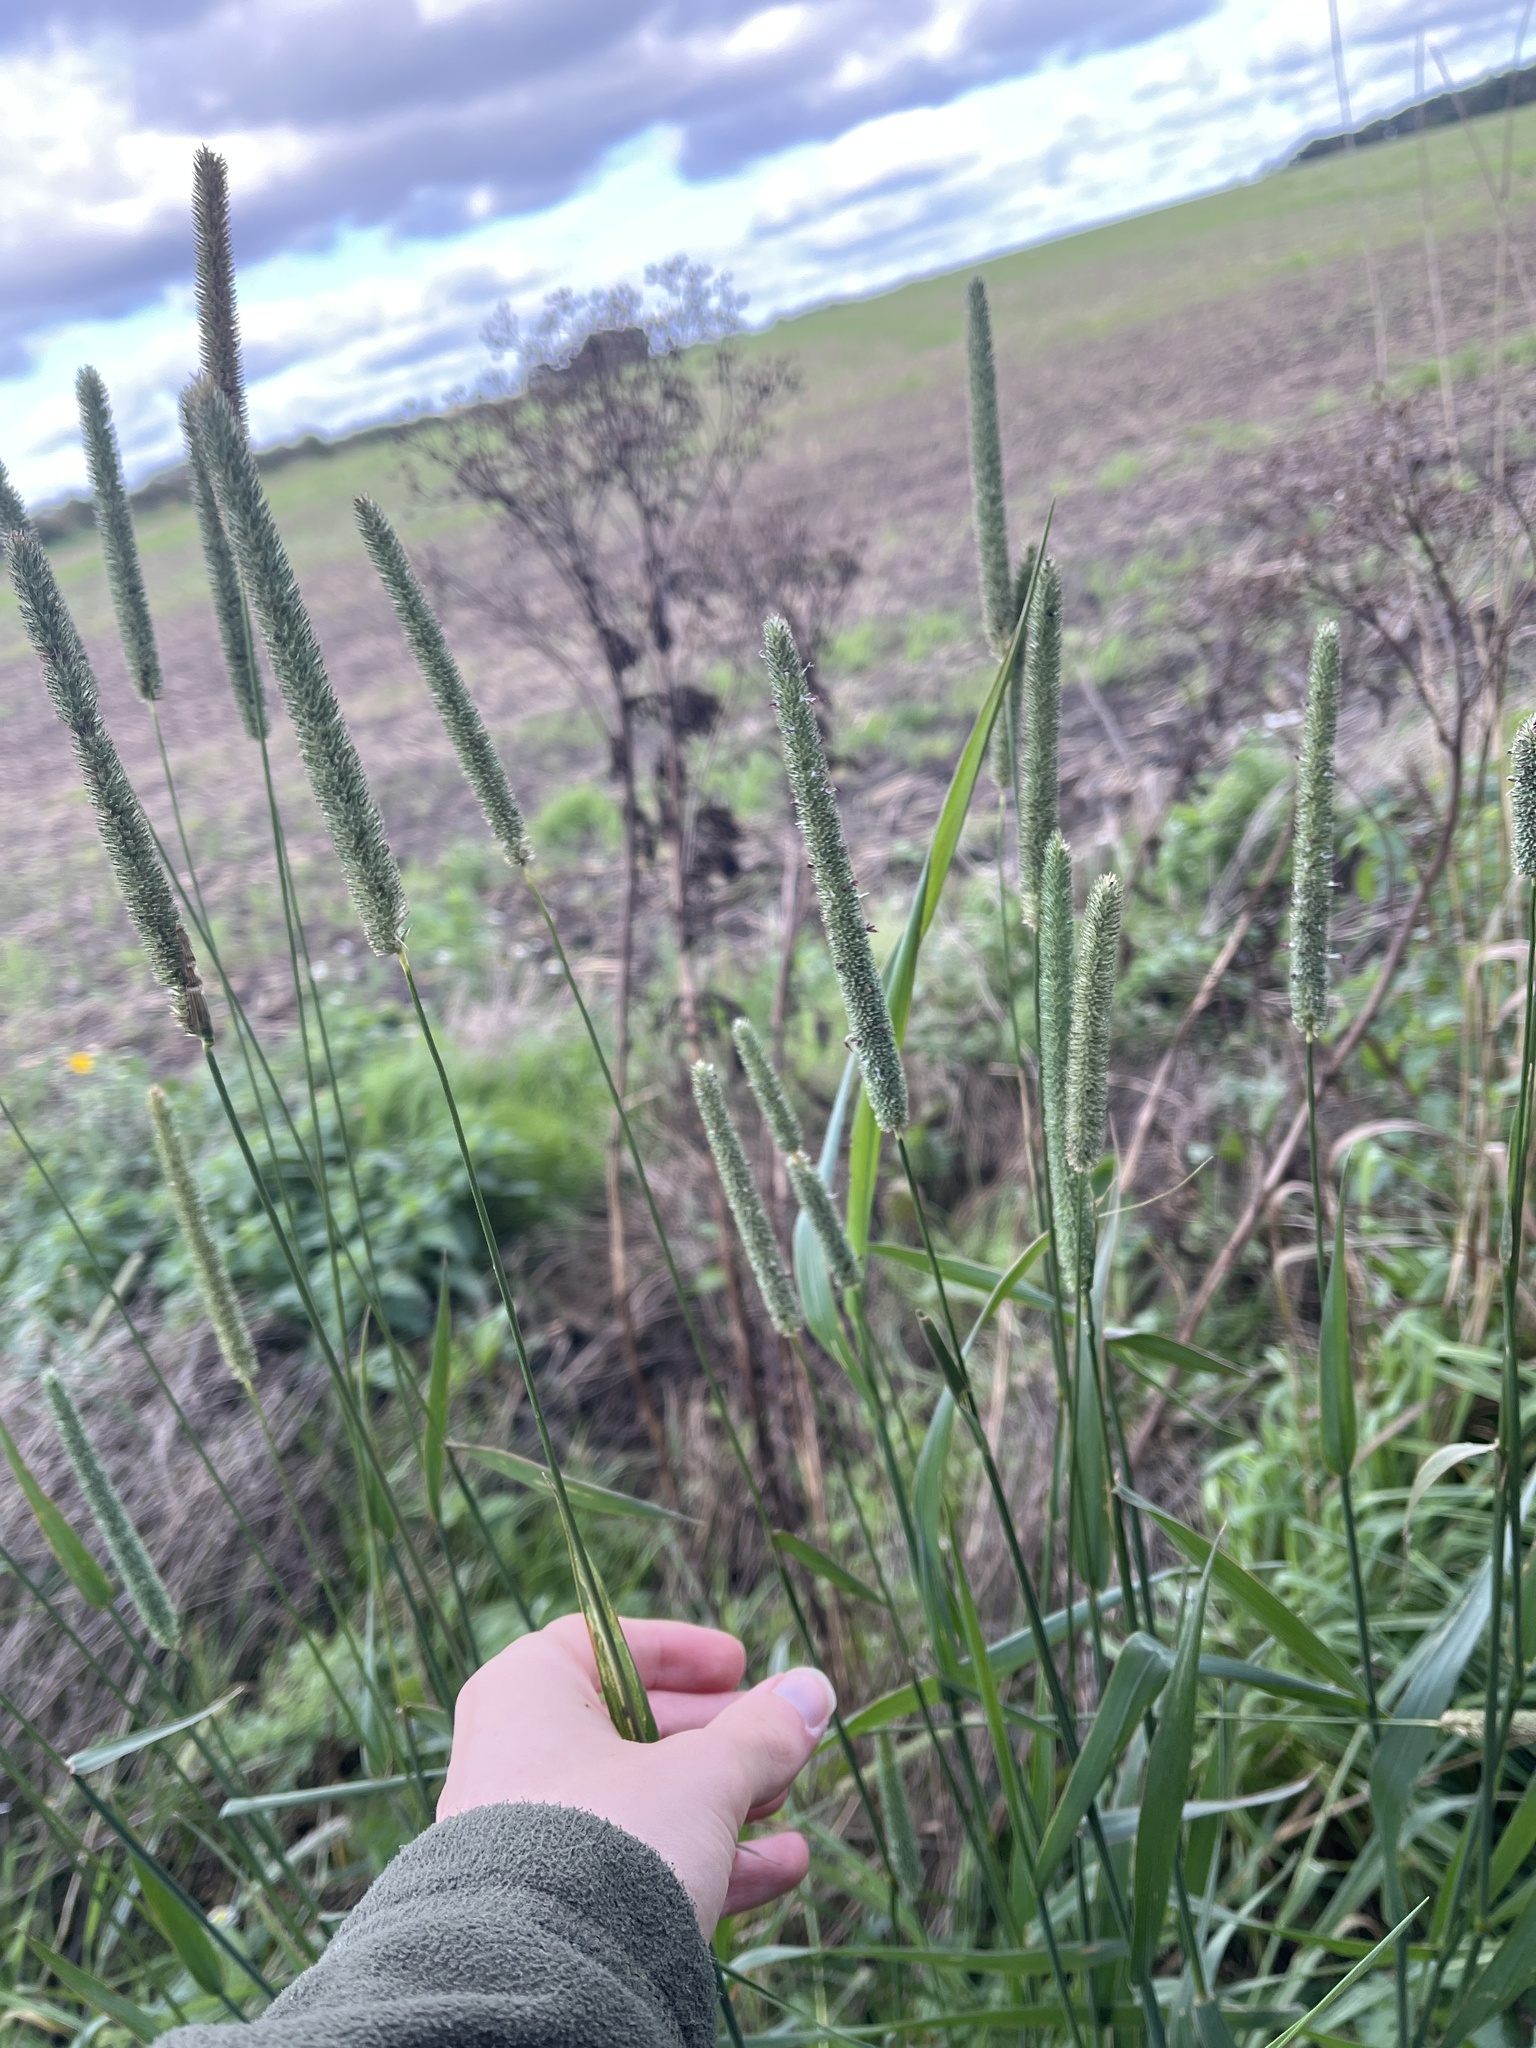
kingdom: Plantae
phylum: Tracheophyta
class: Liliopsida
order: Poales
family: Poaceae
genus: Phleum
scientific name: Phleum pratense
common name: Timothy grass
